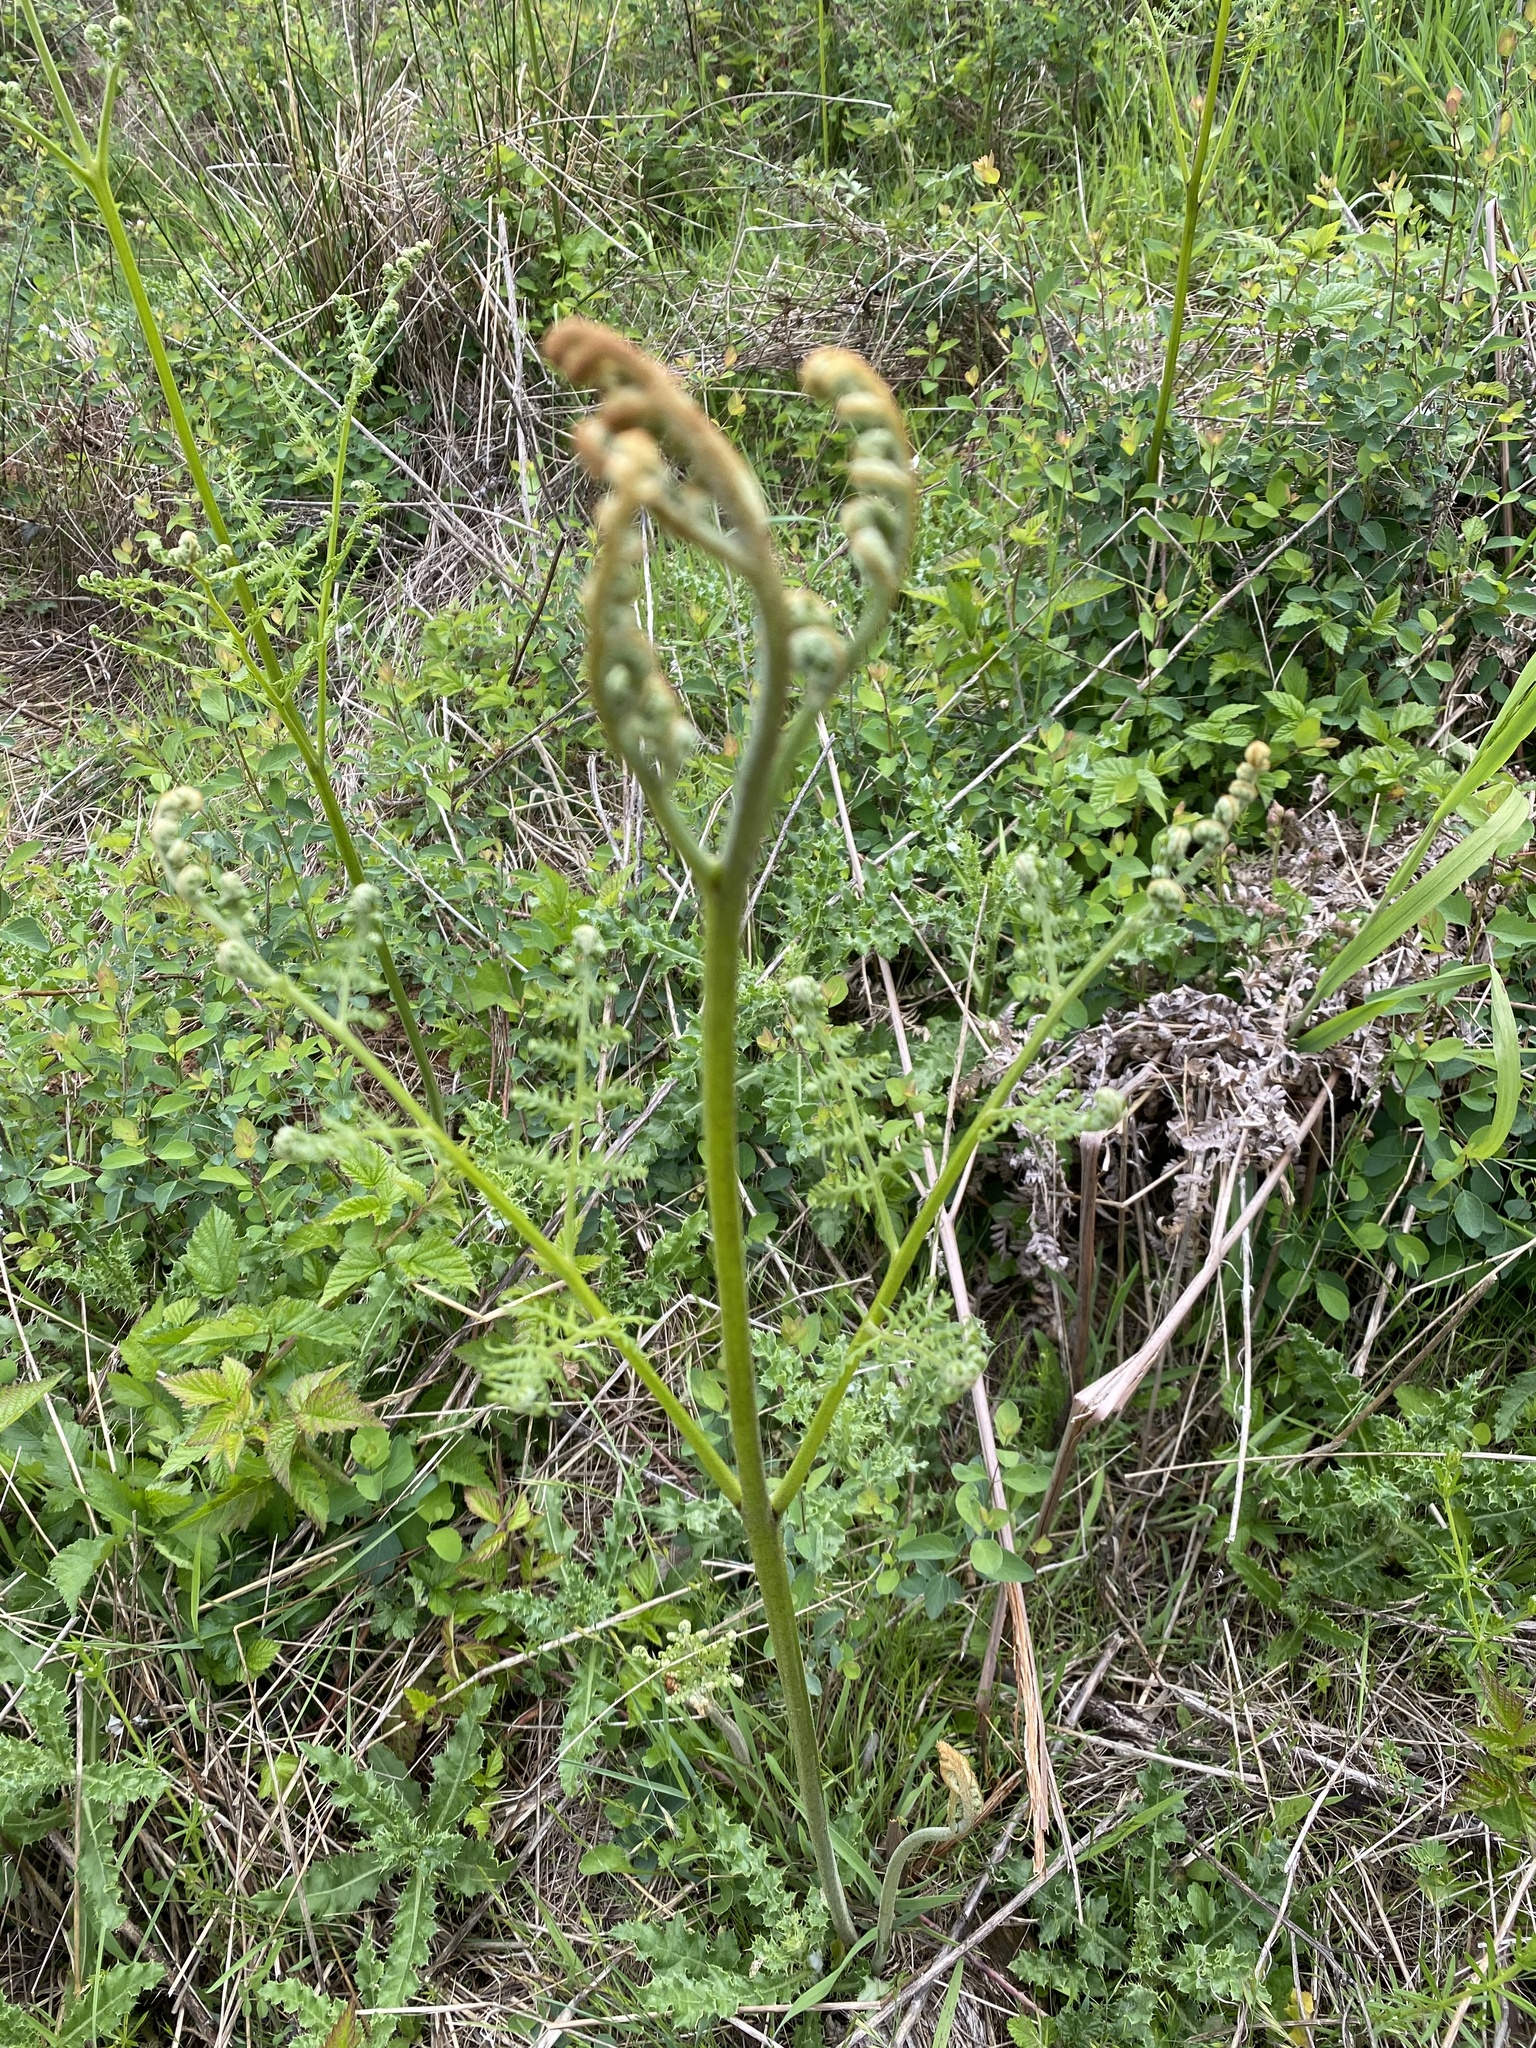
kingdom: Plantae
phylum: Tracheophyta
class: Polypodiopsida
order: Polypodiales
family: Dennstaedtiaceae
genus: Pteridium
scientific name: Pteridium aquilinum
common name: Bracken
